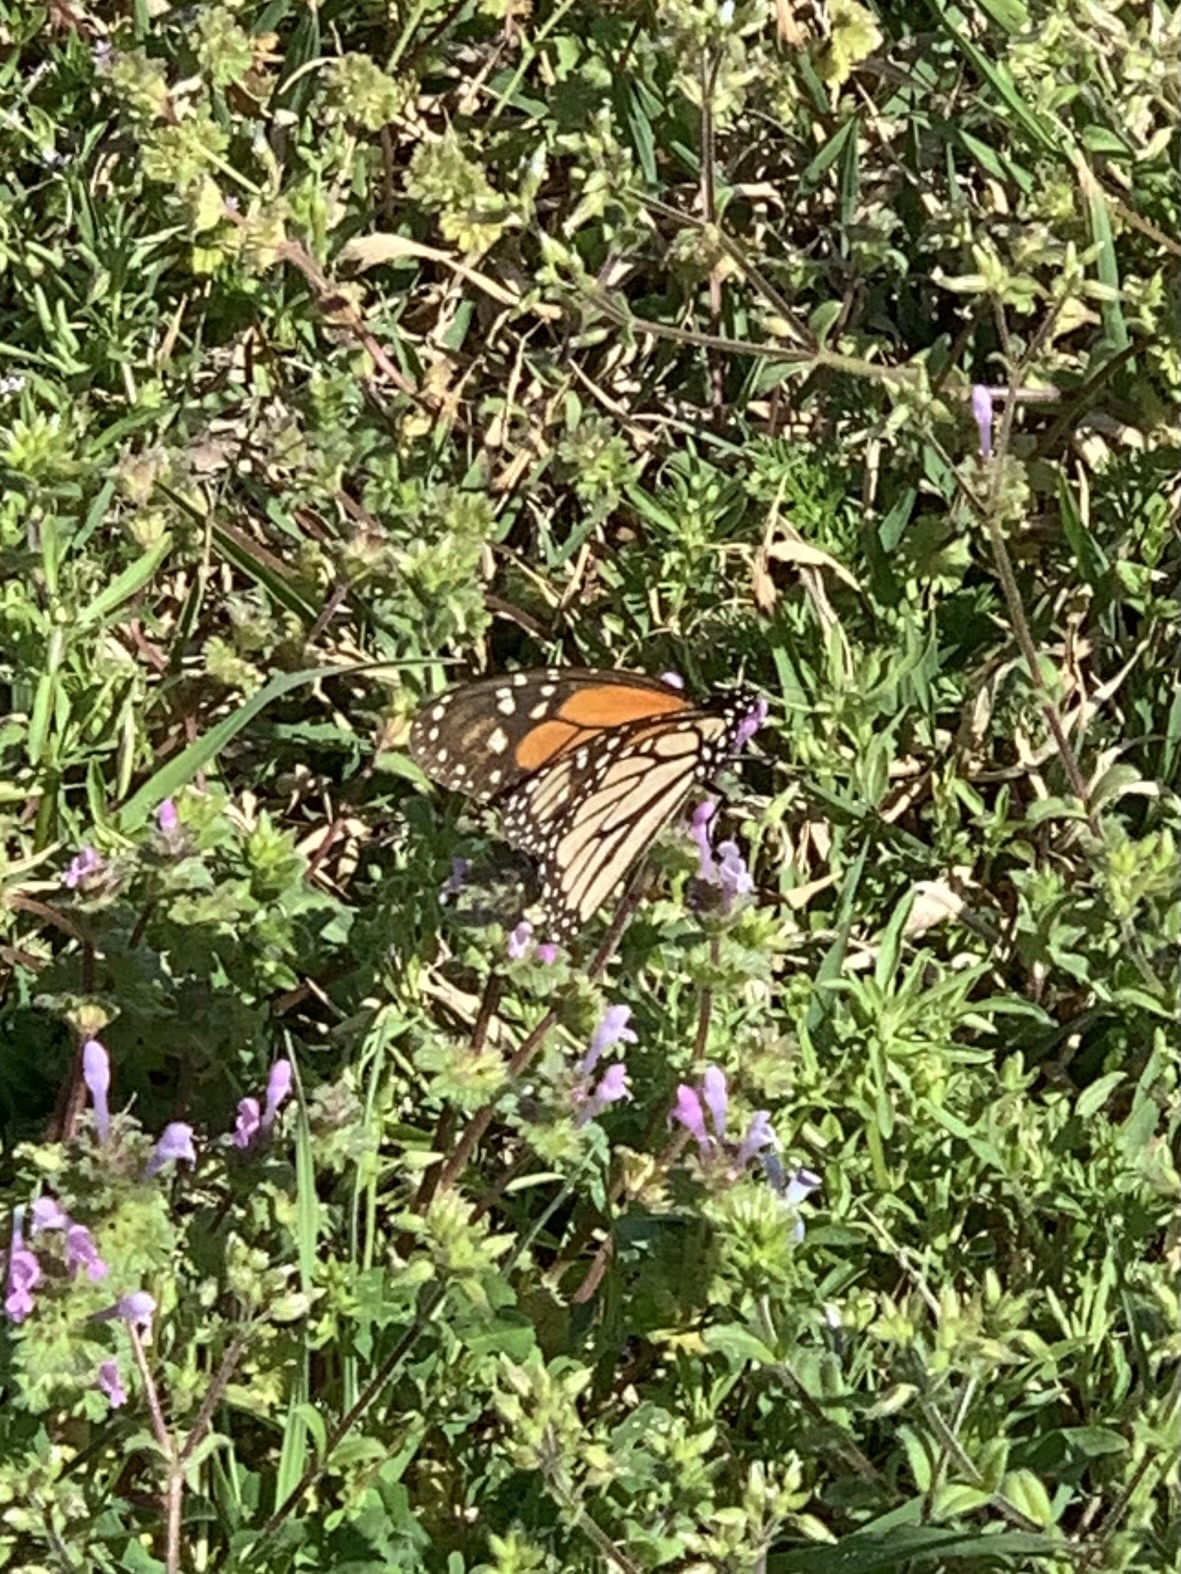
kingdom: Animalia
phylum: Arthropoda
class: Insecta
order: Lepidoptera
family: Nymphalidae
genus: Danaus
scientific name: Danaus plexippus
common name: Monarch
